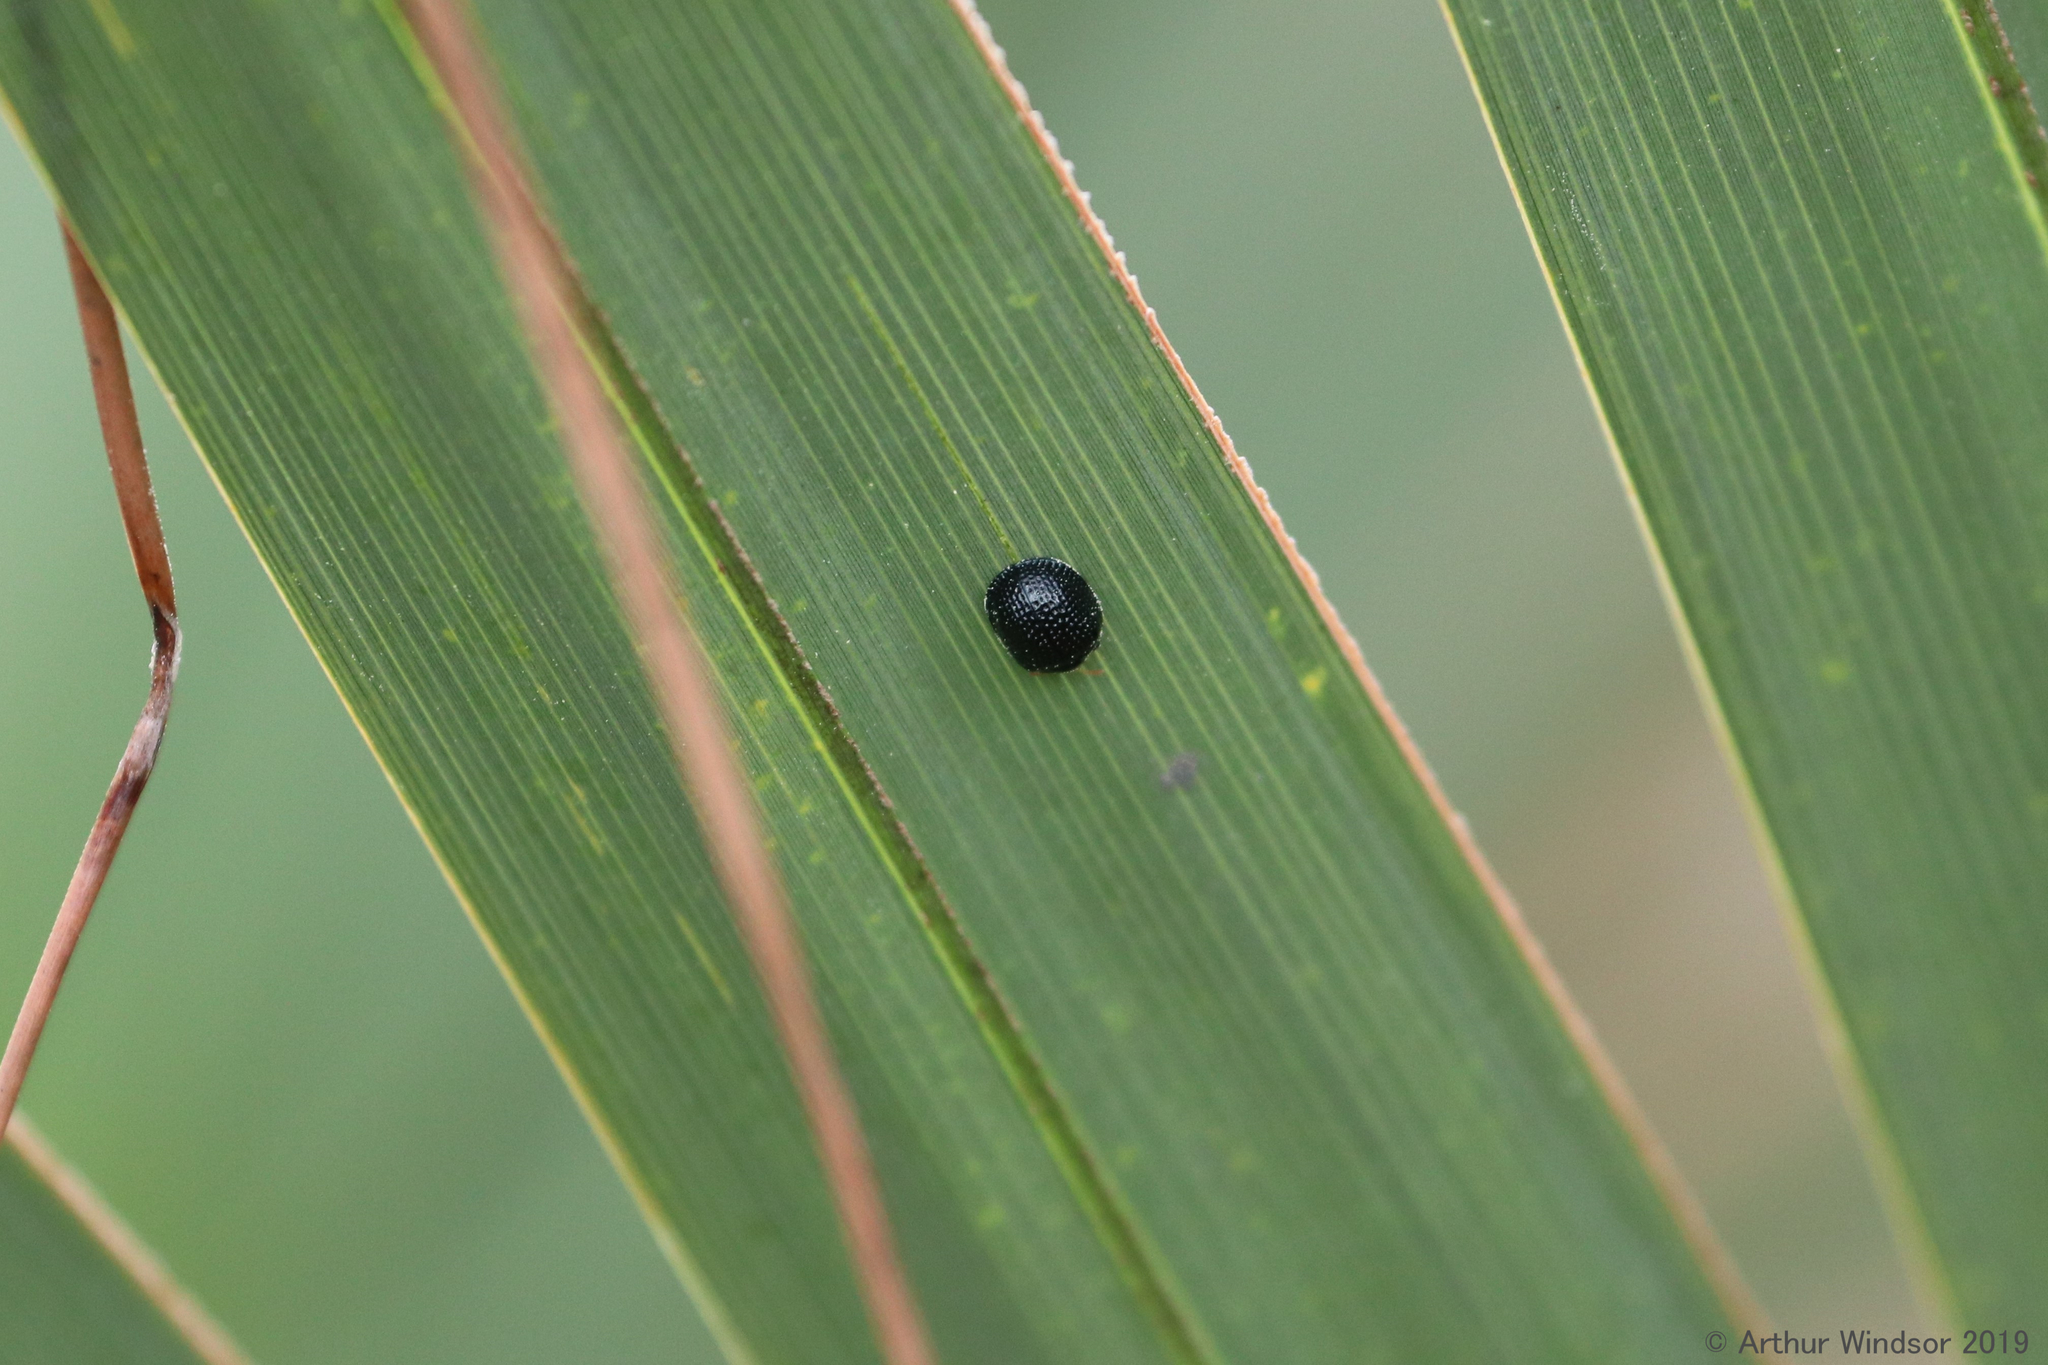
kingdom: Animalia
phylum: Arthropoda
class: Insecta
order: Coleoptera
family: Chrysomelidae
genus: Hemisphaerota
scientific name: Hemisphaerota cyanea
